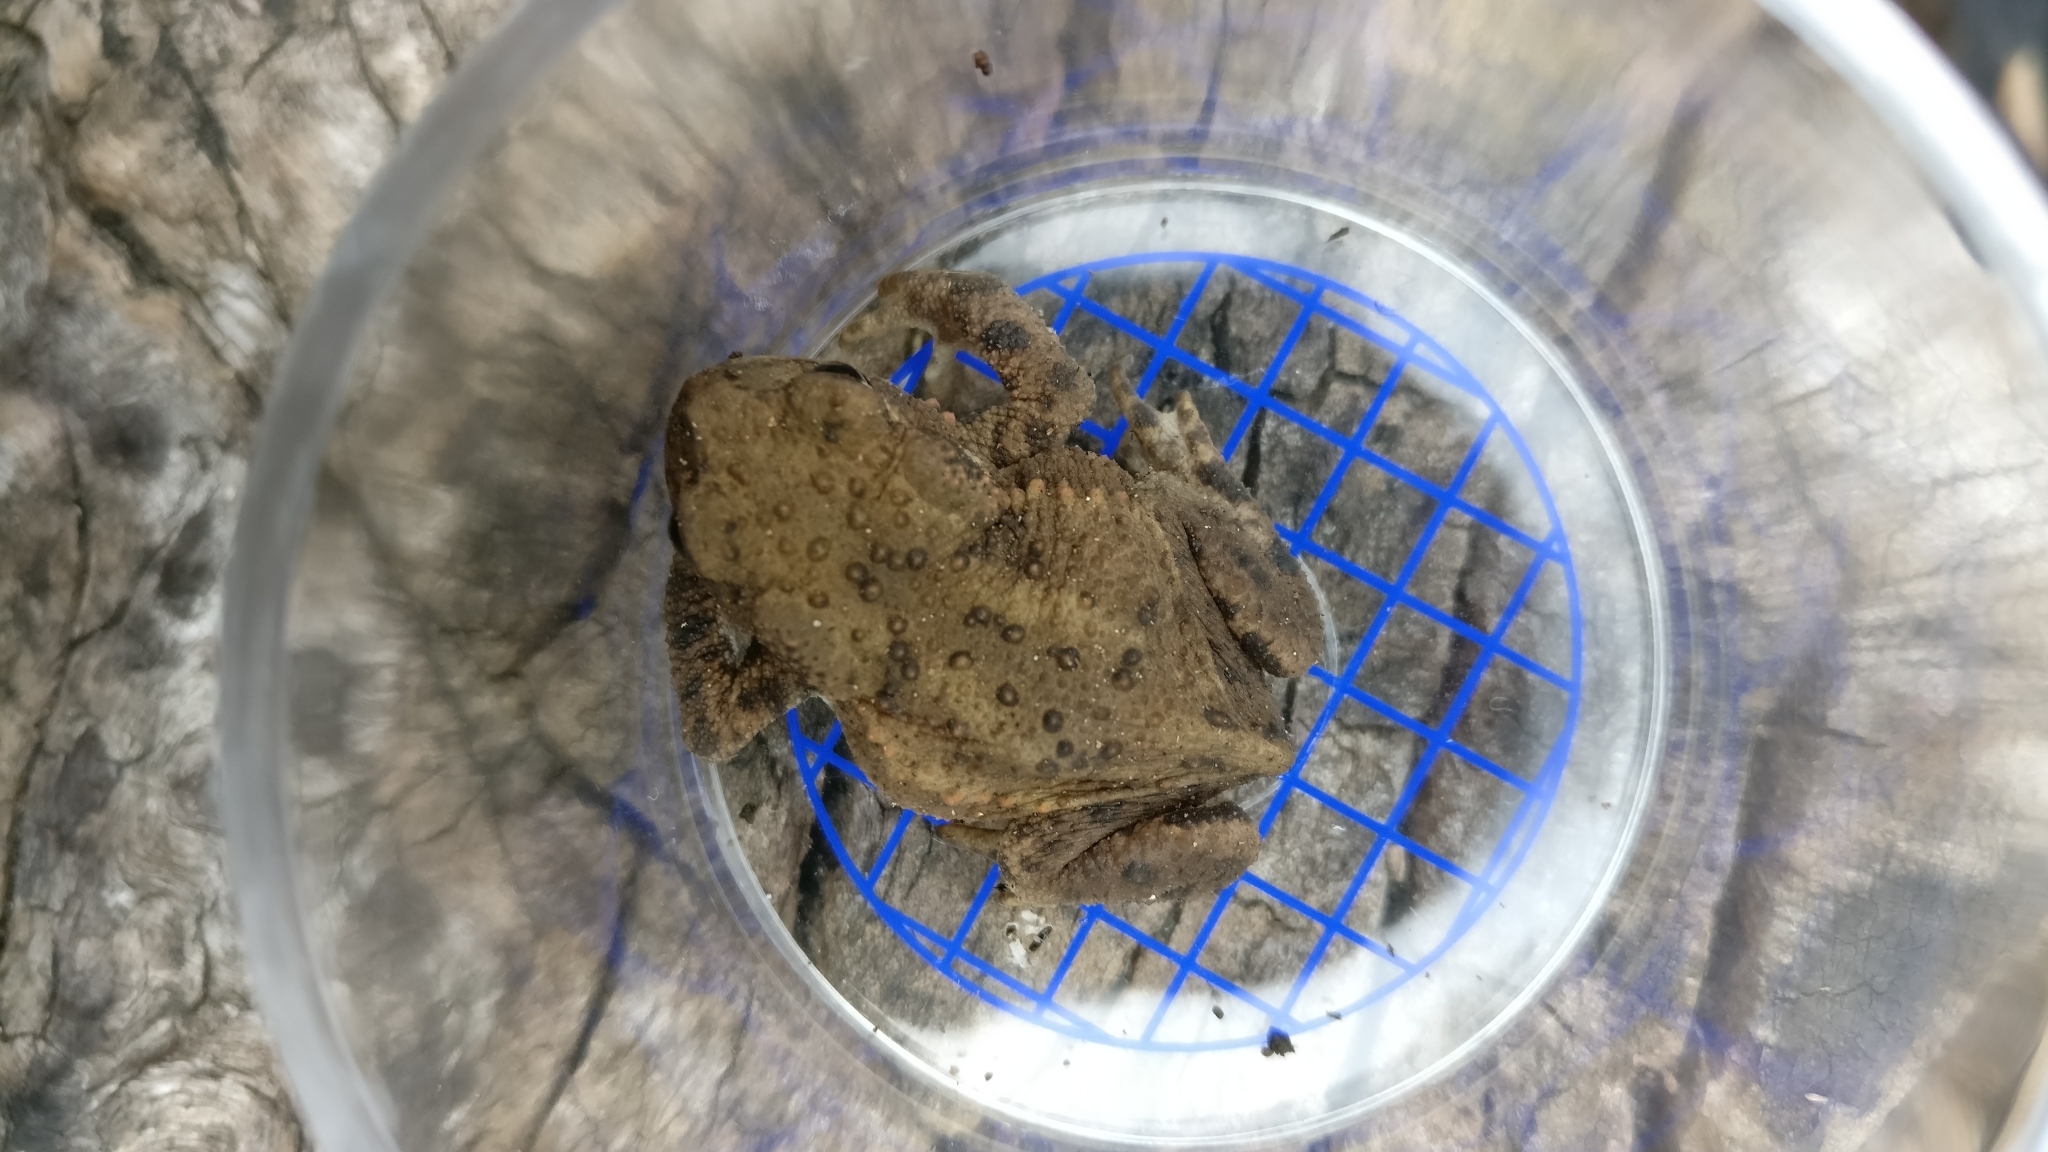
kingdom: Animalia
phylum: Chordata
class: Amphibia
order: Anura
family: Bufonidae
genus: Bufo
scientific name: Bufo bufo
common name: Common toad
